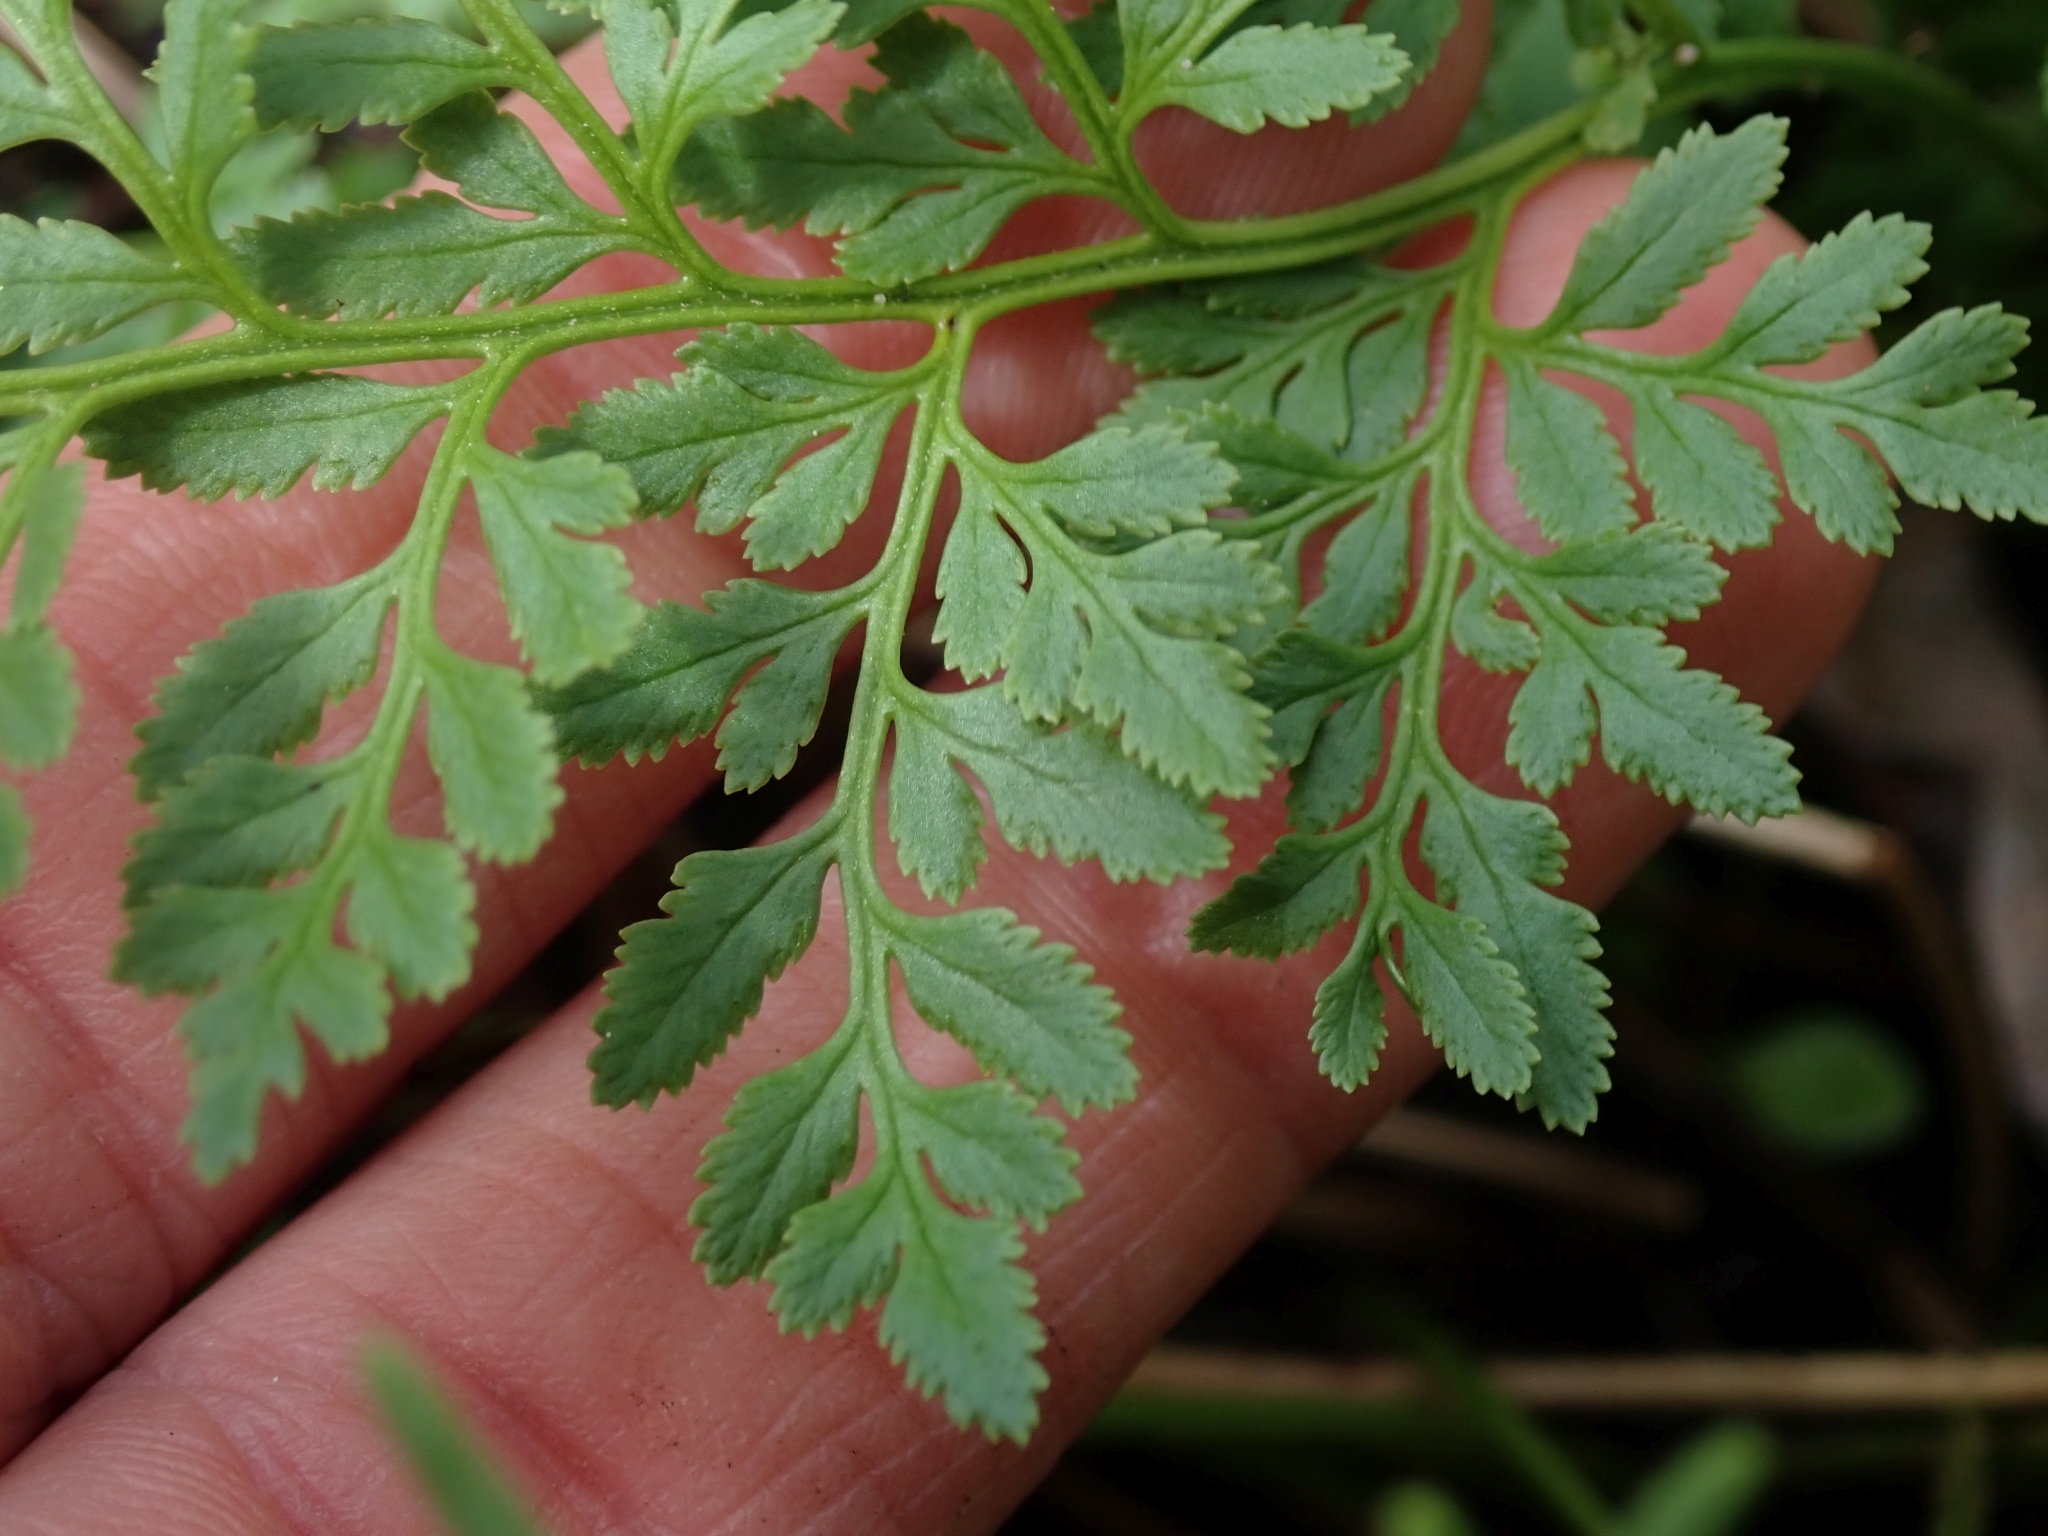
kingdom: Plantae
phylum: Tracheophyta
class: Polypodiopsida
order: Polypodiales
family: Pteridaceae
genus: Cryptogramma
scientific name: Cryptogramma acrostichoides
